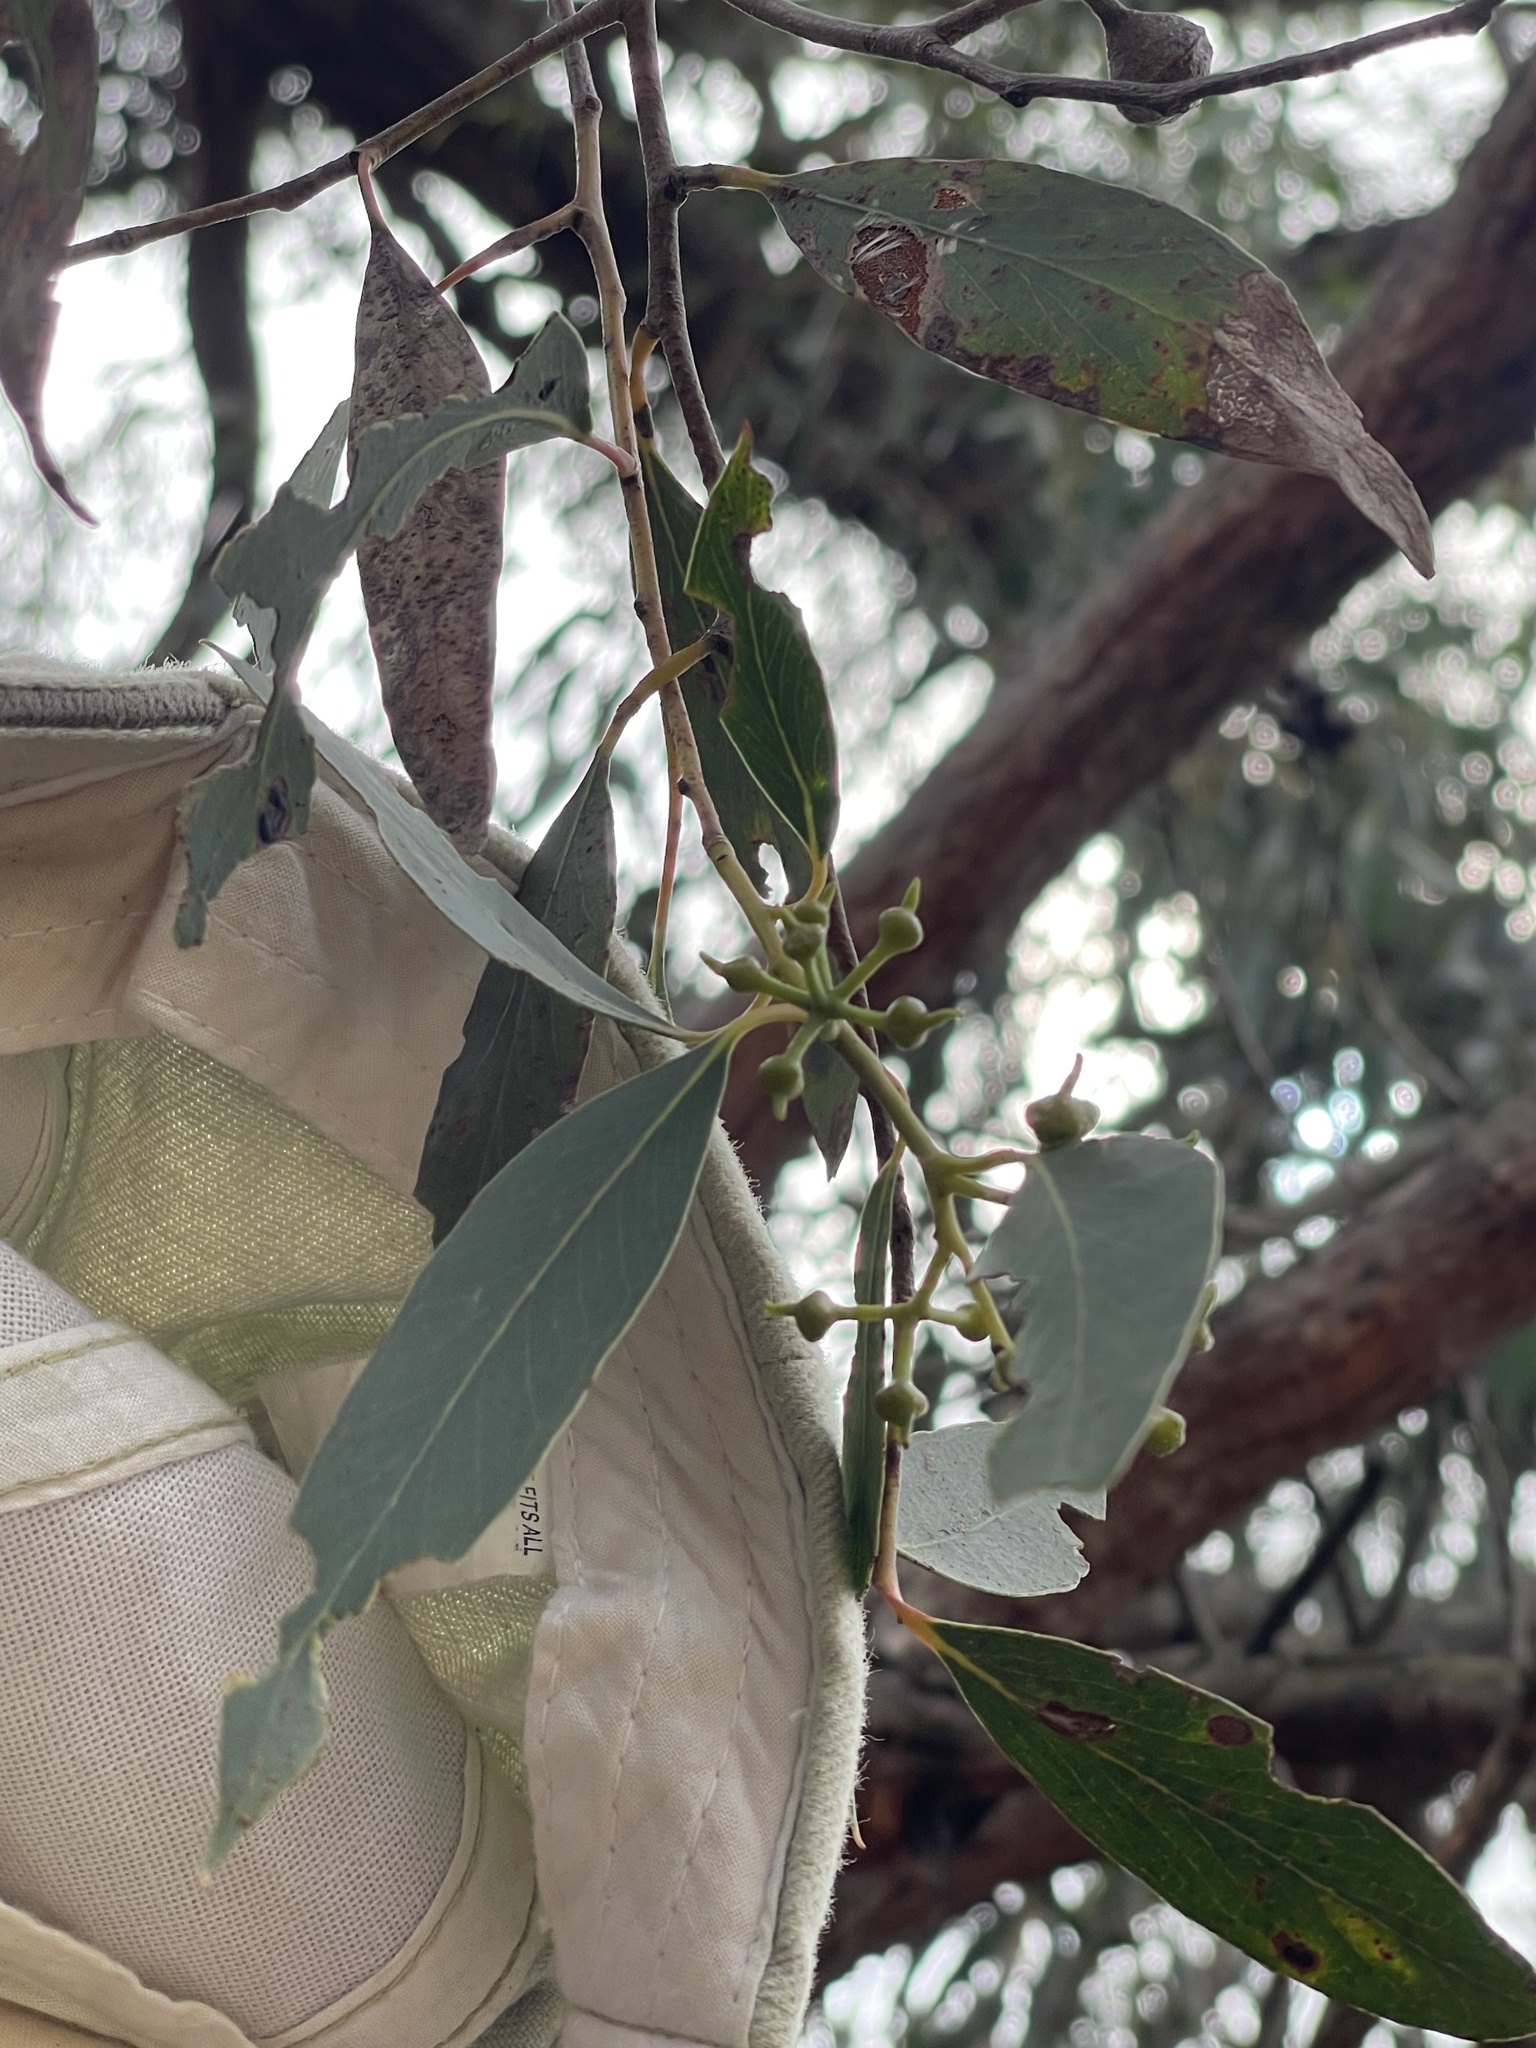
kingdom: Plantae
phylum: Tracheophyta
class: Magnoliopsida
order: Myrtales
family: Myrtaceae
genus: Eucalyptus
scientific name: Eucalyptus macrorhyncha
